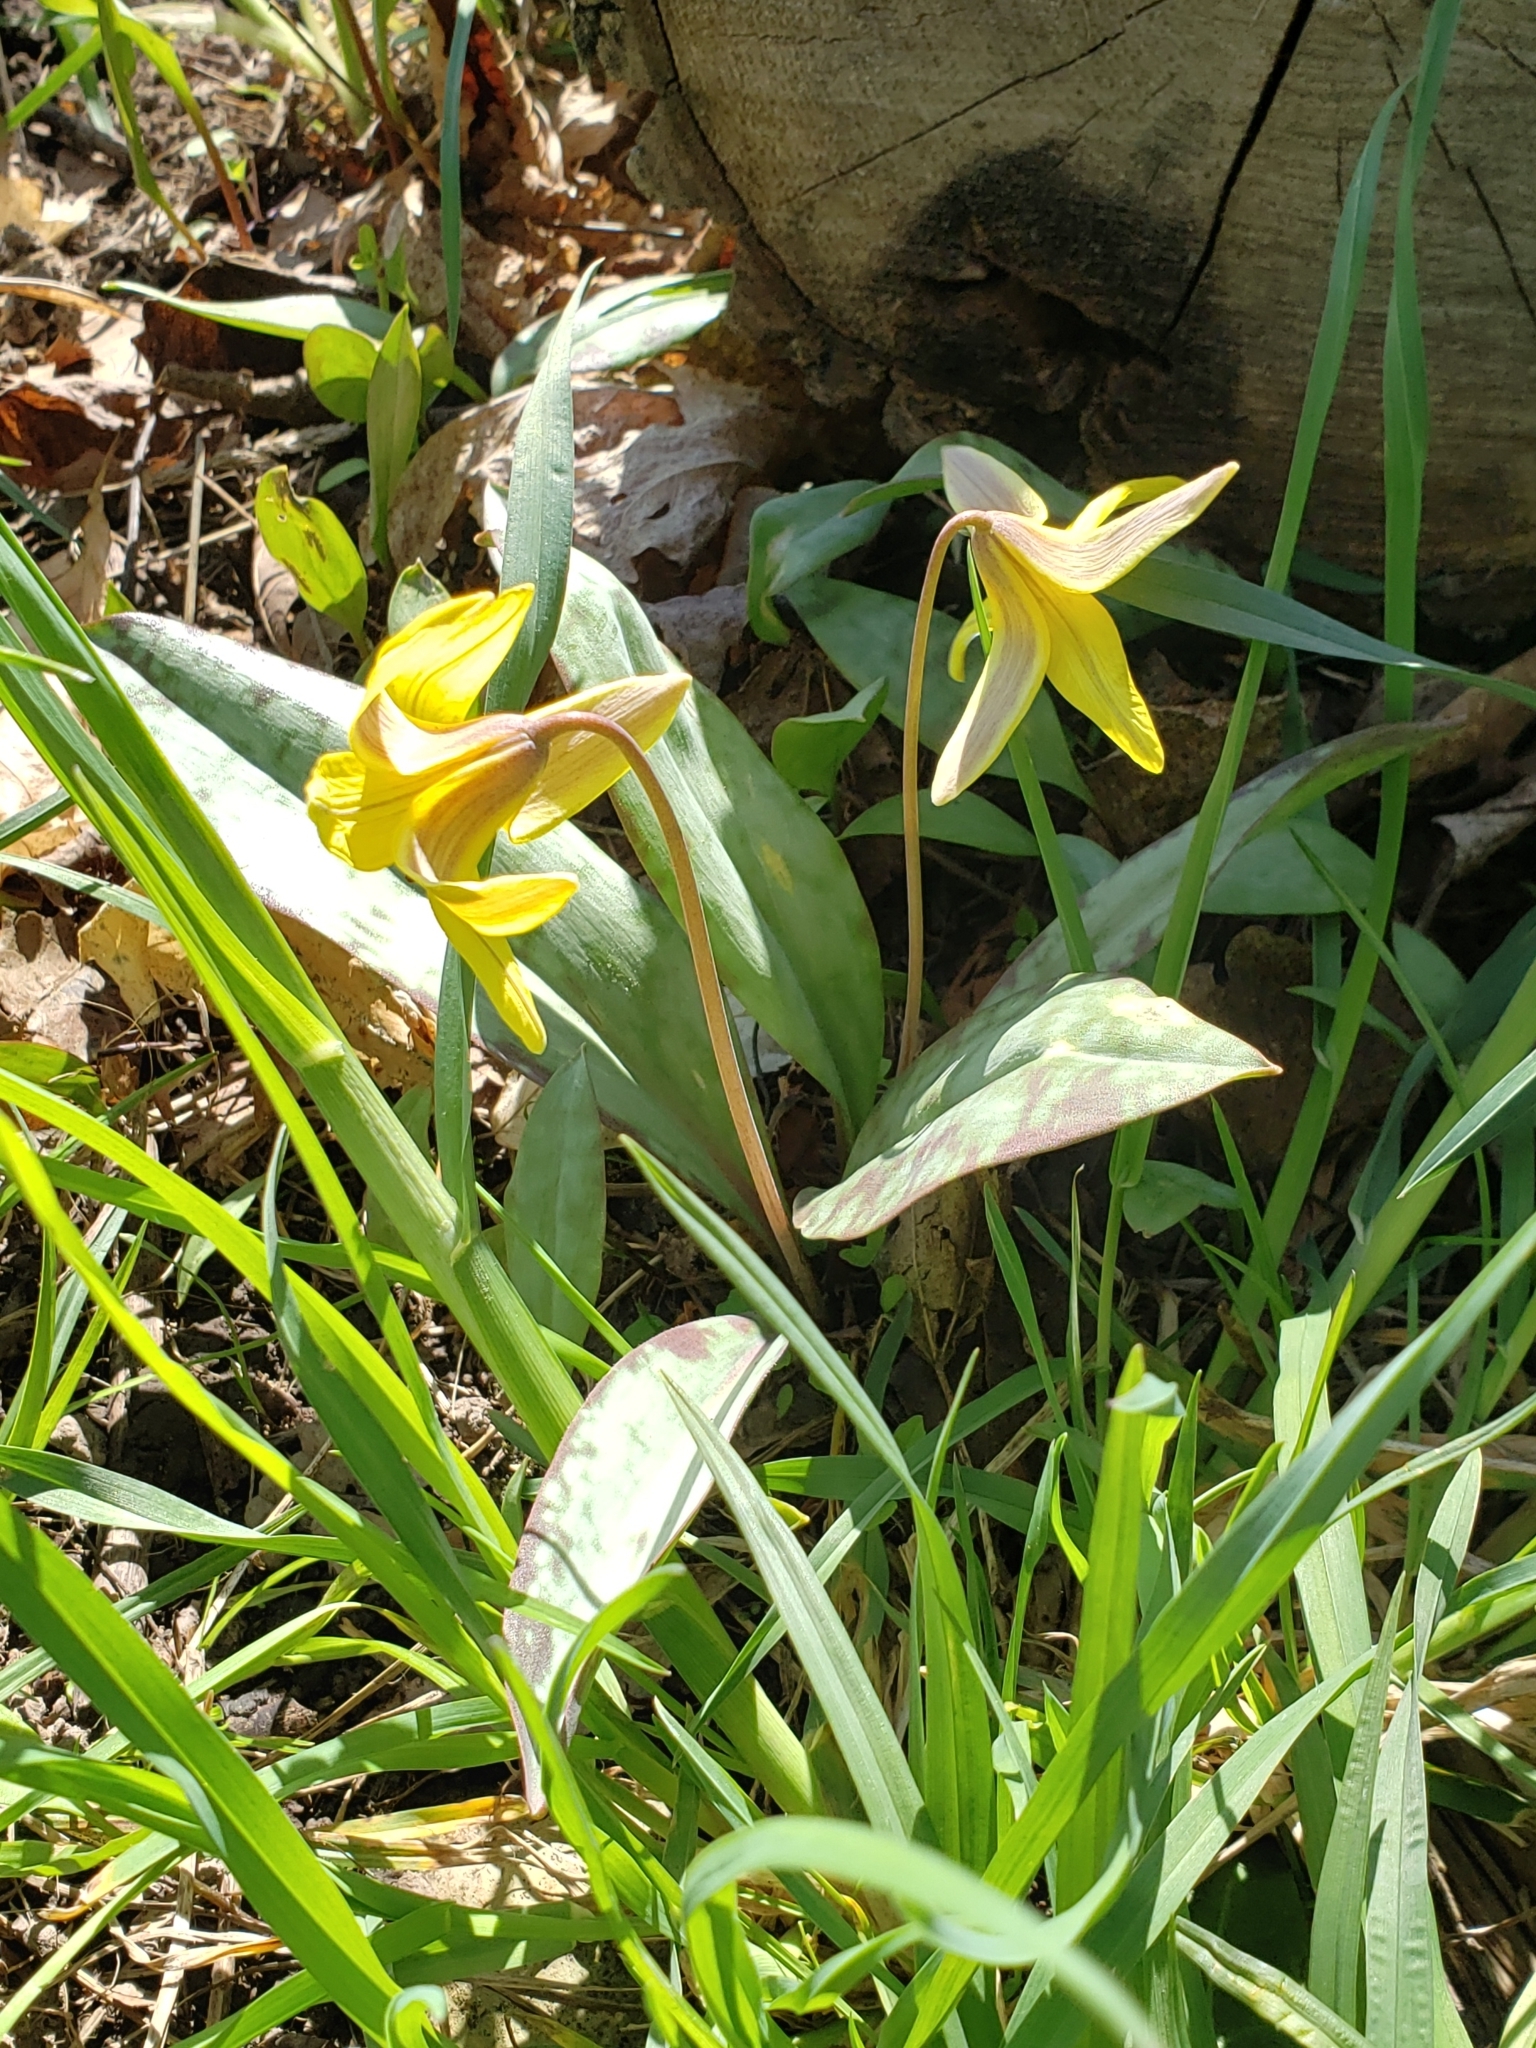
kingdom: Plantae
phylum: Tracheophyta
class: Liliopsida
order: Liliales
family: Liliaceae
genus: Erythronium
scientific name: Erythronium americanum
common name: Yellow adder's-tongue
